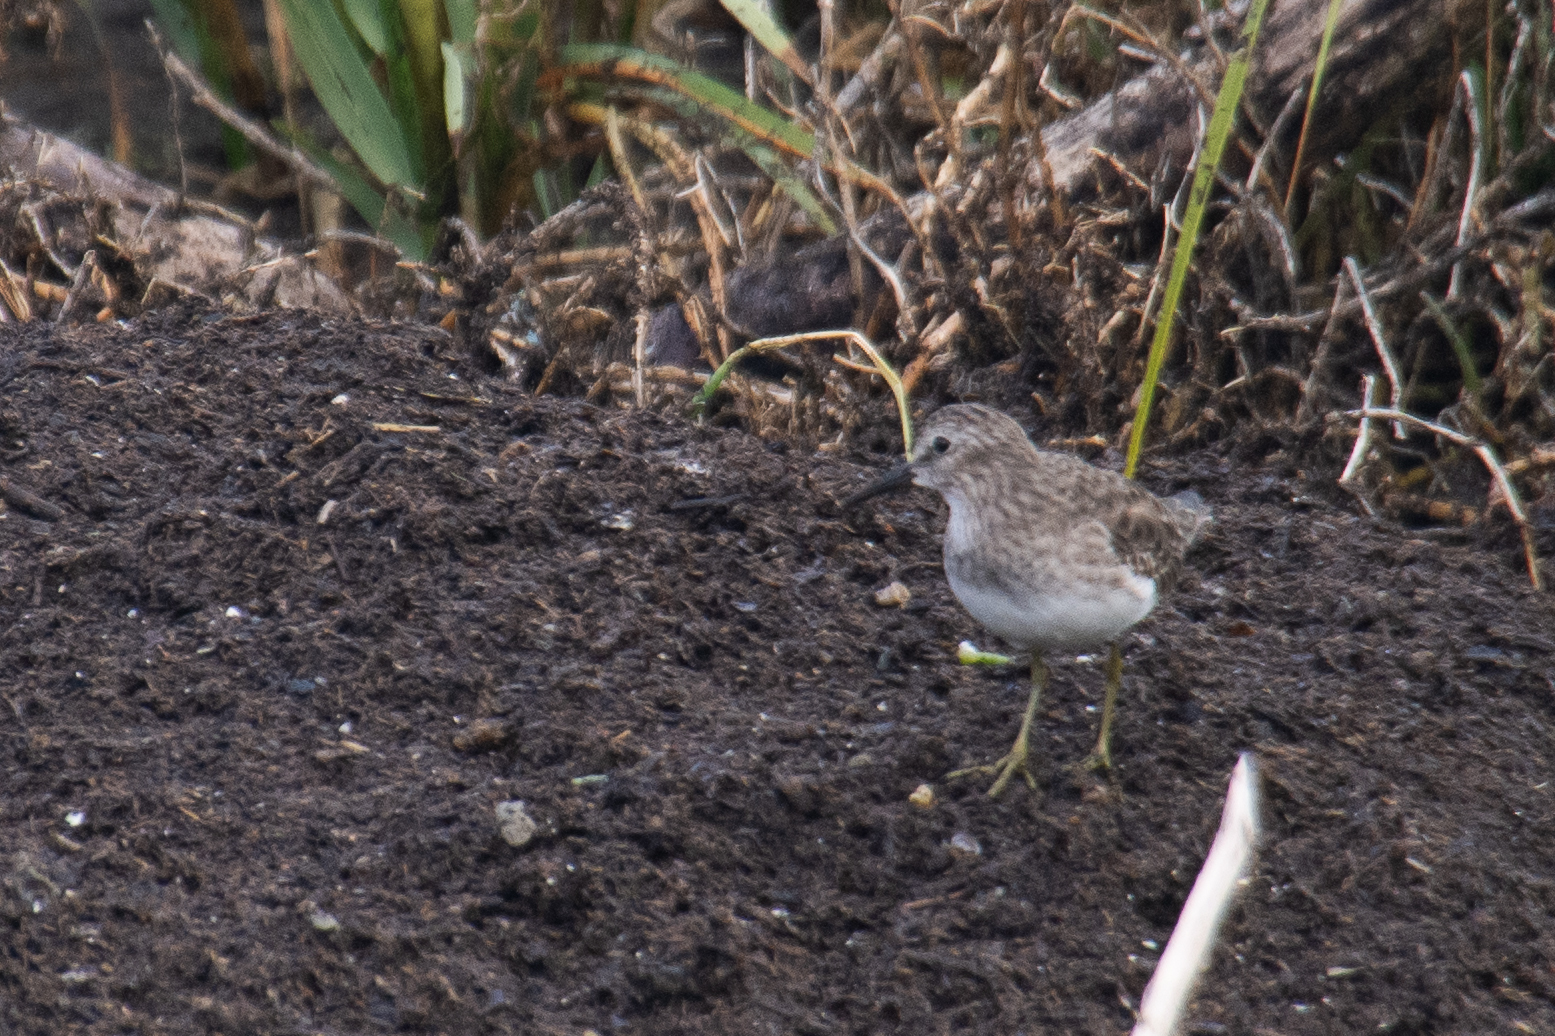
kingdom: Animalia
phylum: Chordata
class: Aves
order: Charadriiformes
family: Scolopacidae
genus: Calidris
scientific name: Calidris minutilla
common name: Least sandpiper
